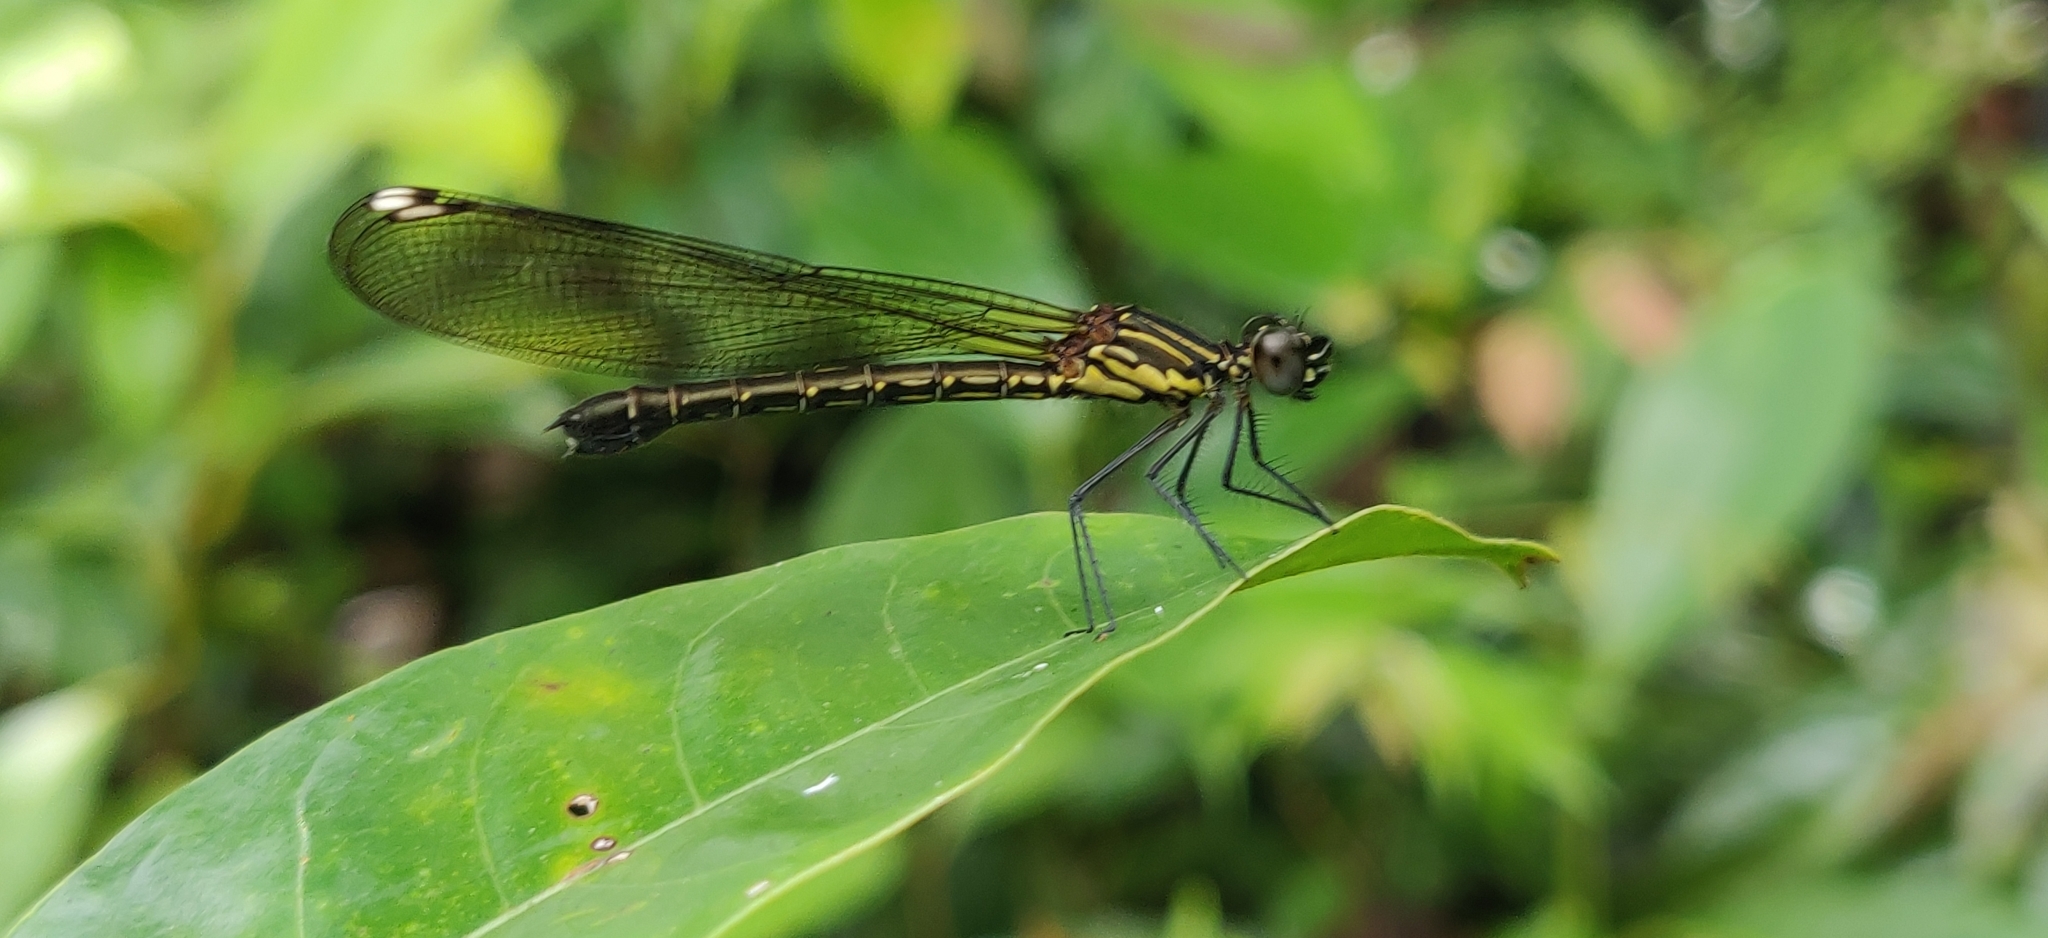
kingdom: Animalia
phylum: Arthropoda
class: Insecta
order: Odonata
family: Chlorocyphidae
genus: Heliocypha
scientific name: Heliocypha bisignata
